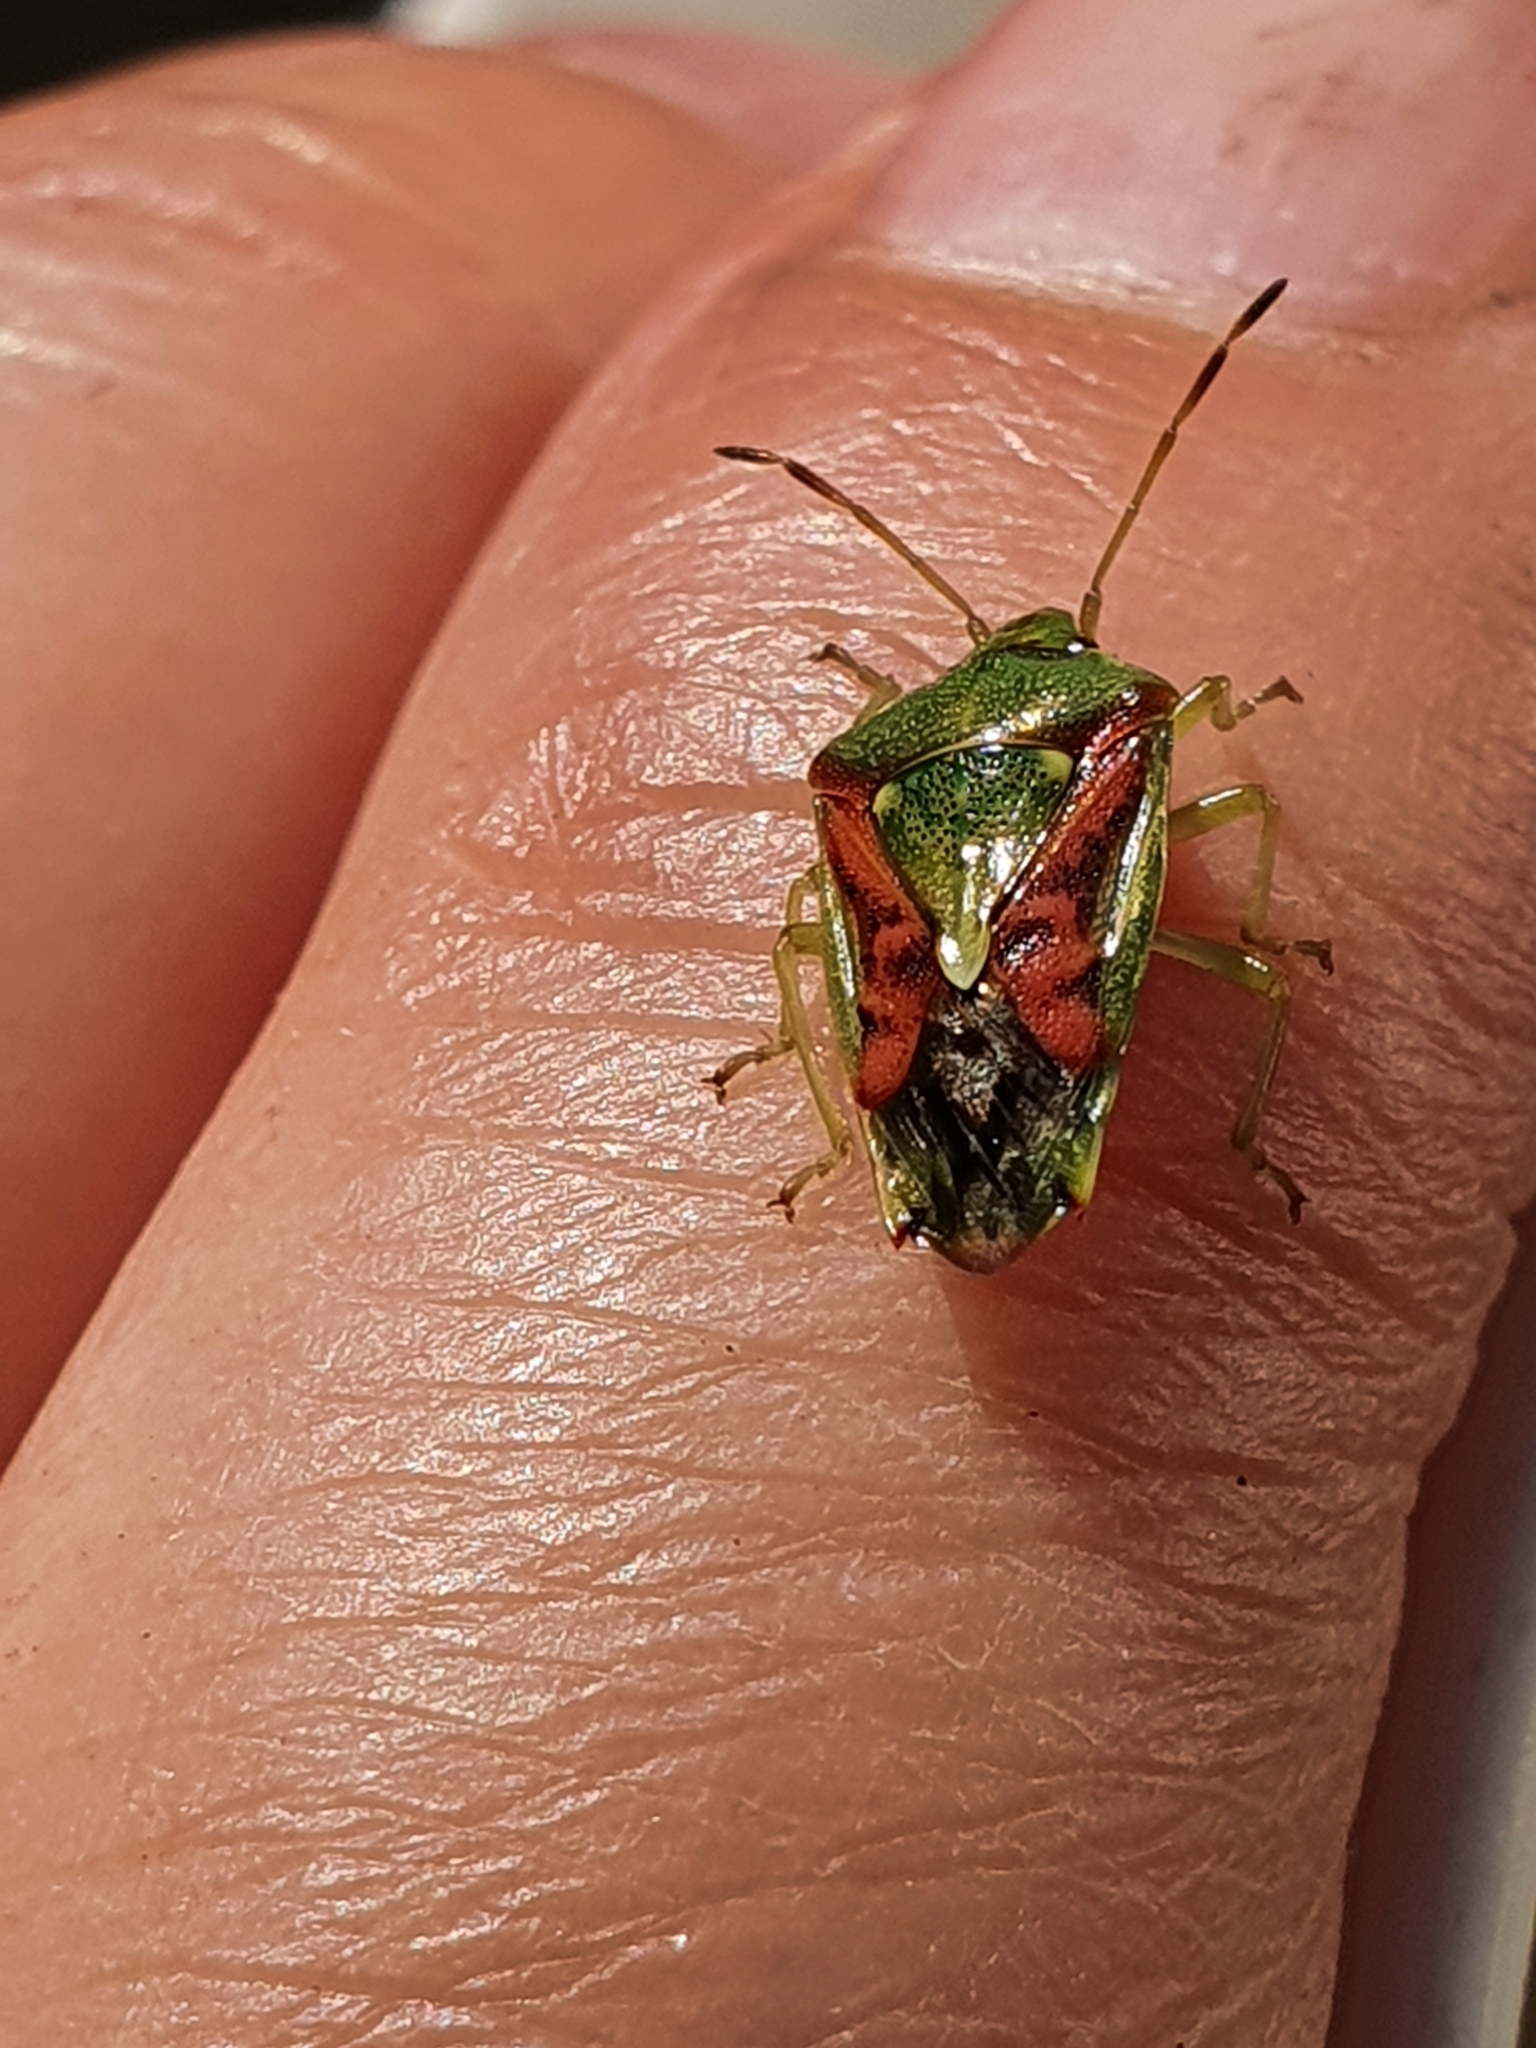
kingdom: Animalia
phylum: Arthropoda
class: Insecta
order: Hemiptera
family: Acanthosomatidae
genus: Cyphostethus
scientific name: Cyphostethus tristriatus
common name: Juniper shieldbug
